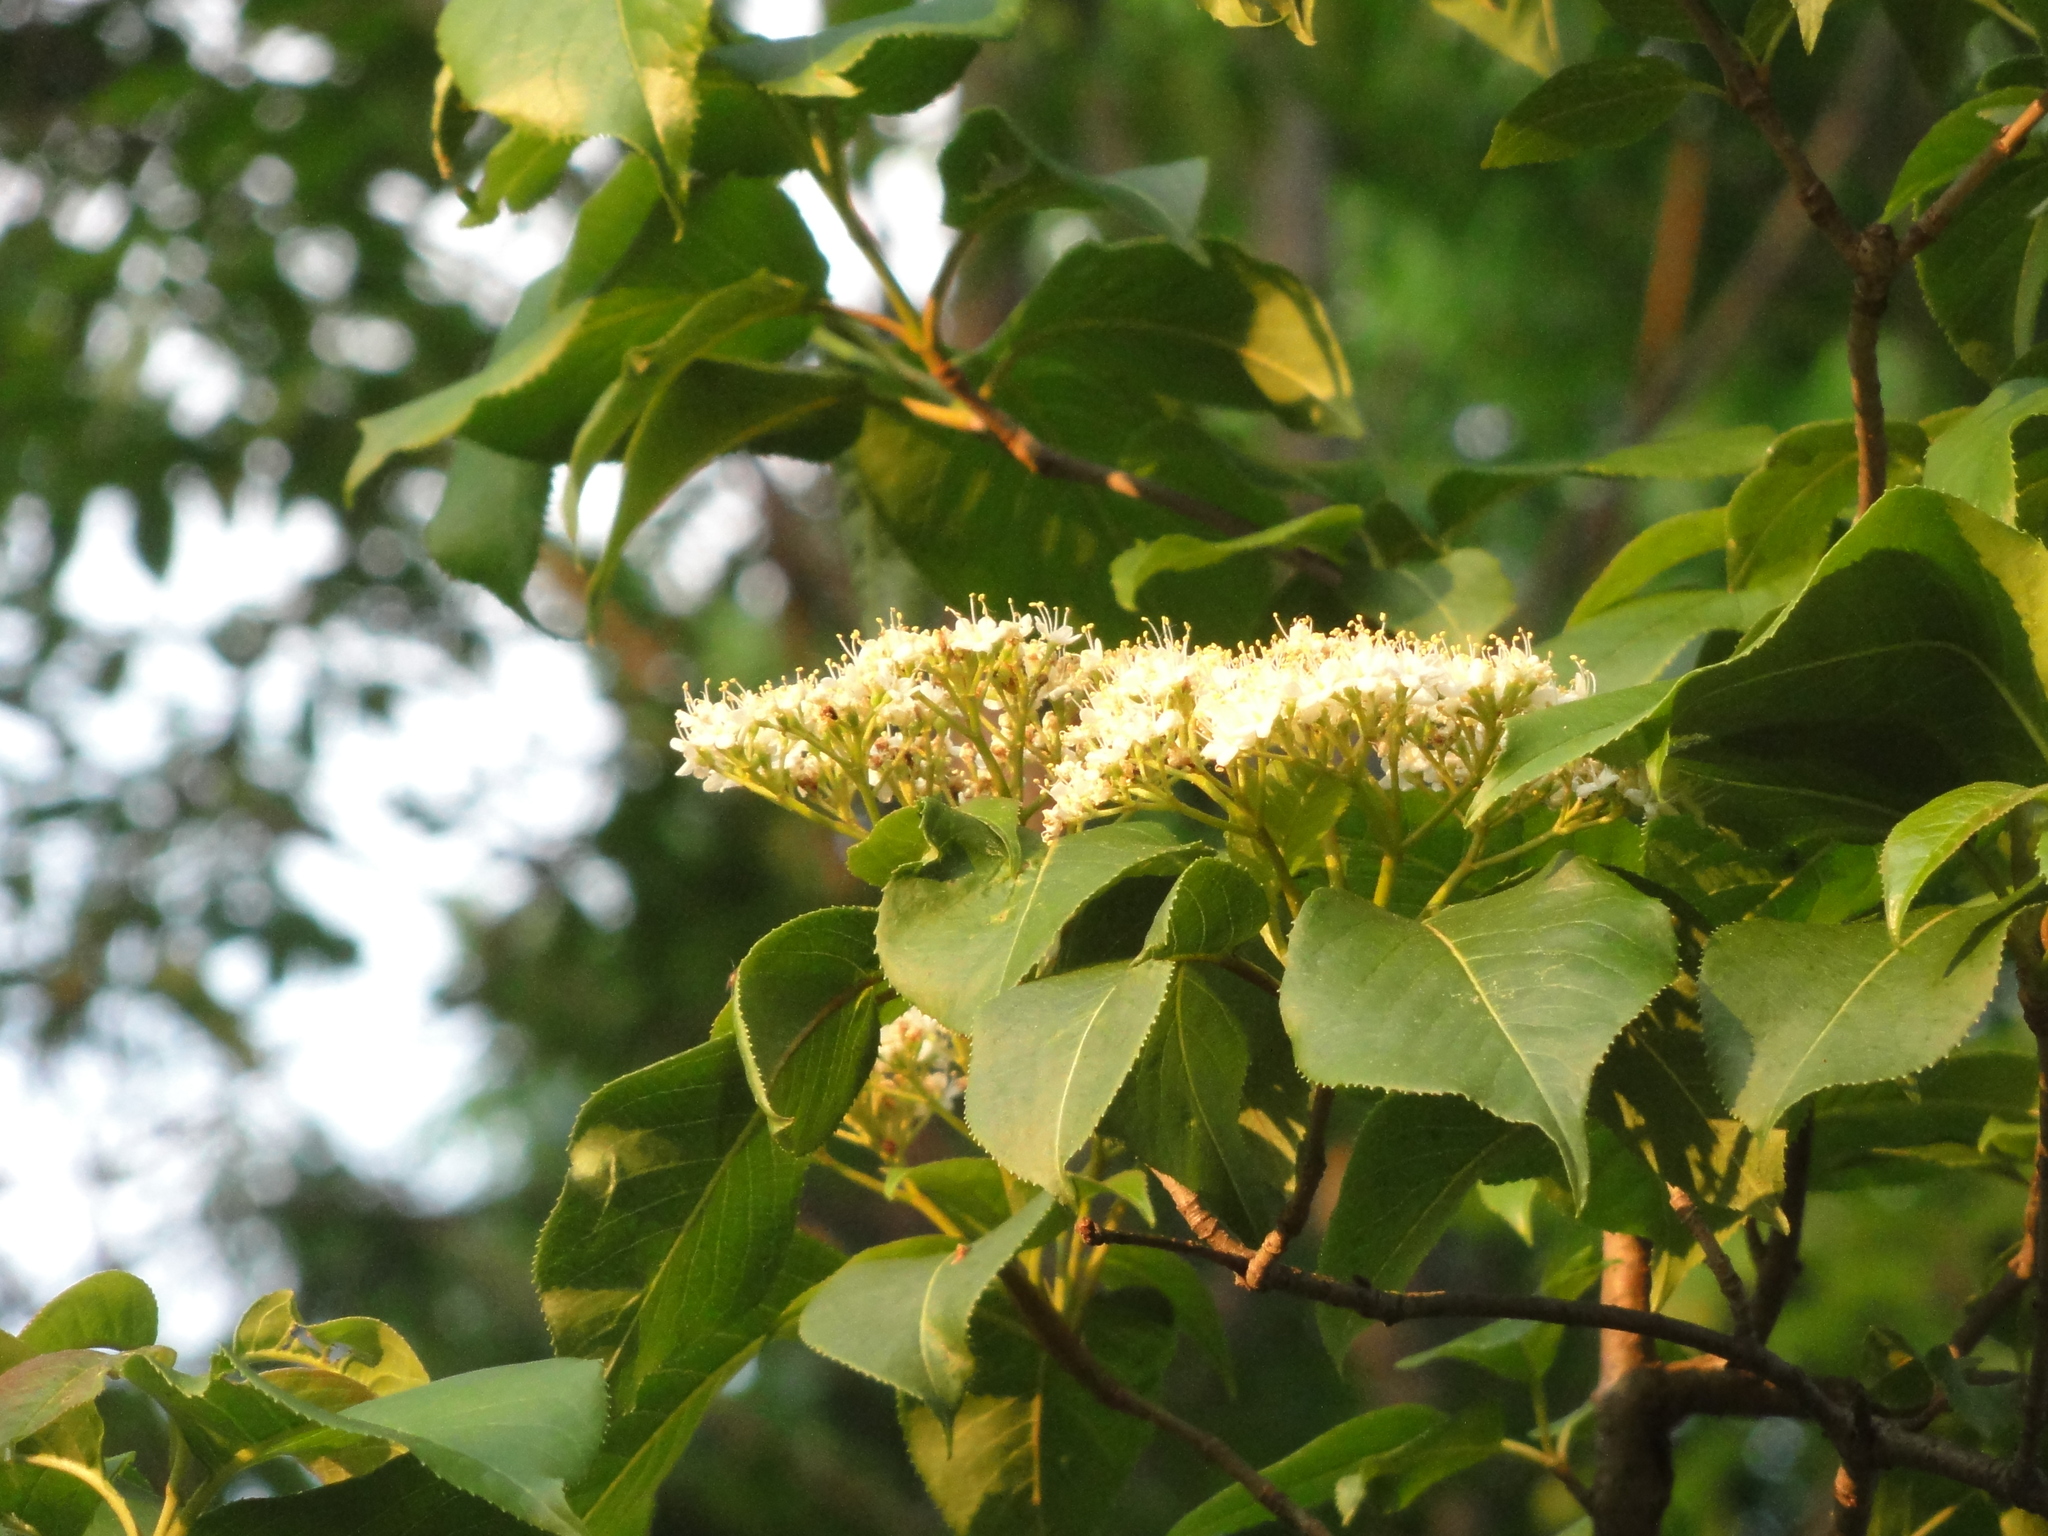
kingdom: Plantae
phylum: Tracheophyta
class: Magnoliopsida
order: Dipsacales
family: Viburnaceae
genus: Viburnum
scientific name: Viburnum lentago
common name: Black haw
